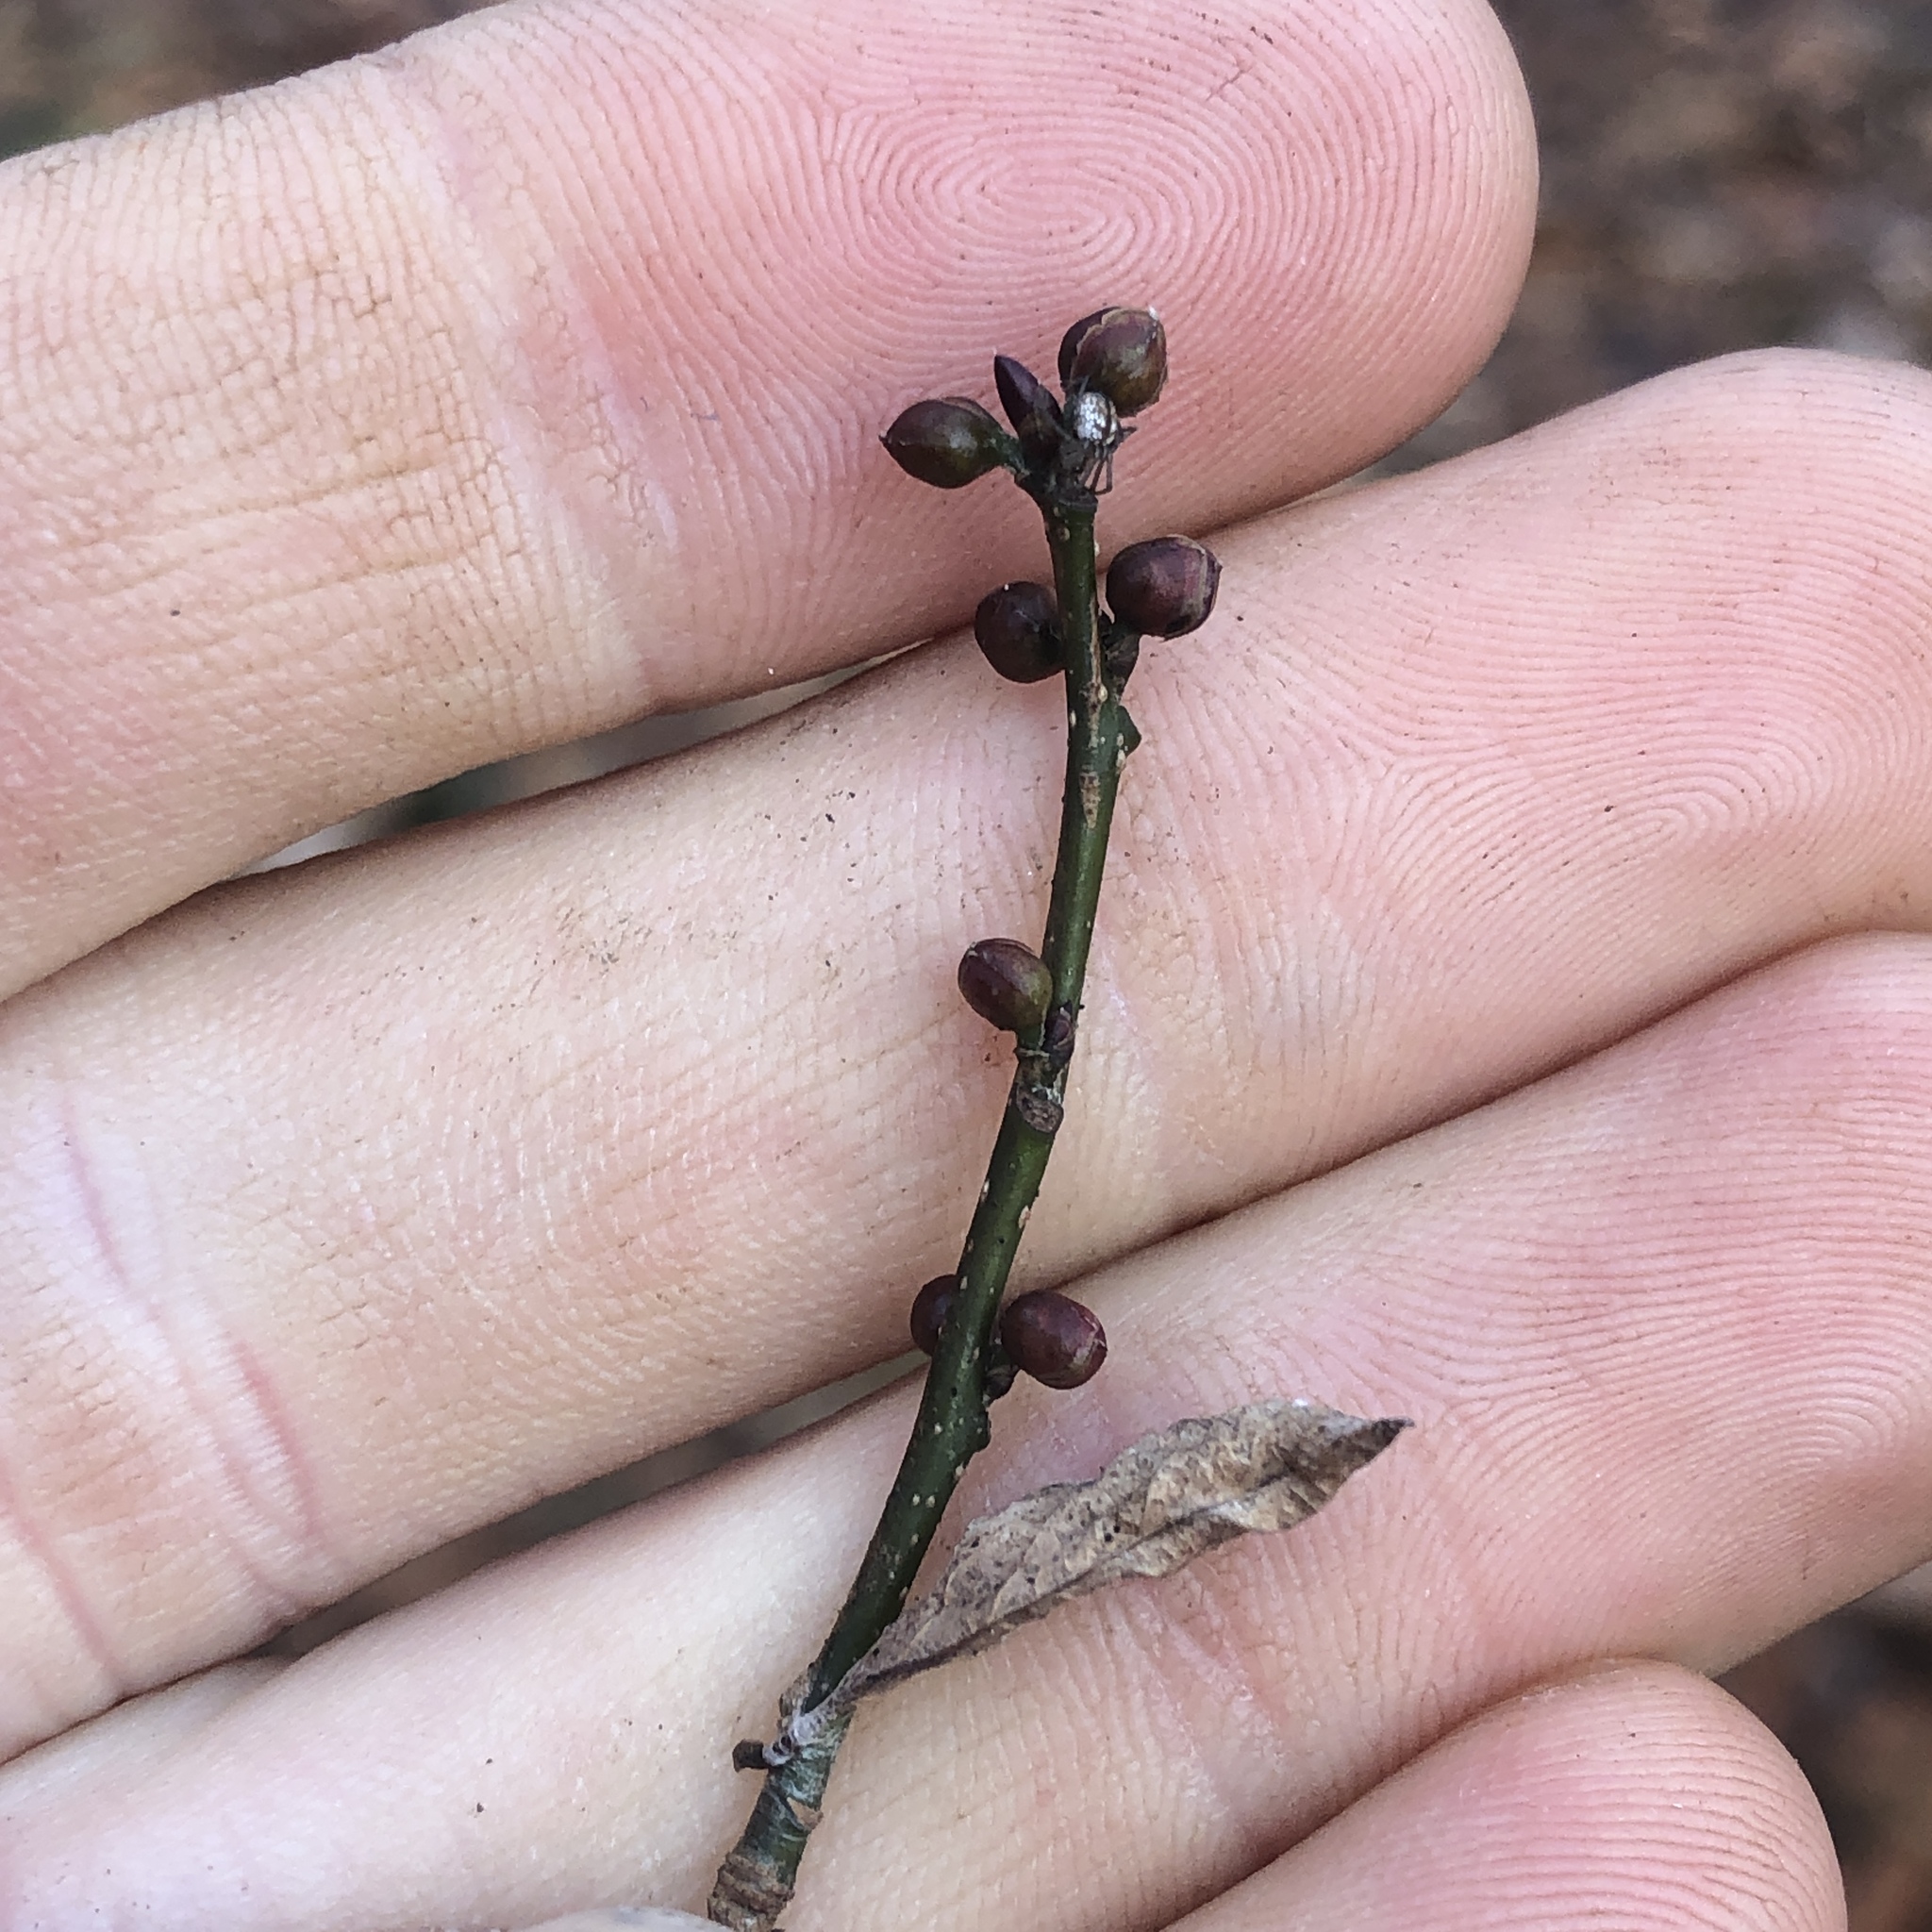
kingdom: Plantae
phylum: Tracheophyta
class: Magnoliopsida
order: Laurales
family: Lauraceae
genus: Lindera
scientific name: Lindera benzoin
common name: Spicebush
